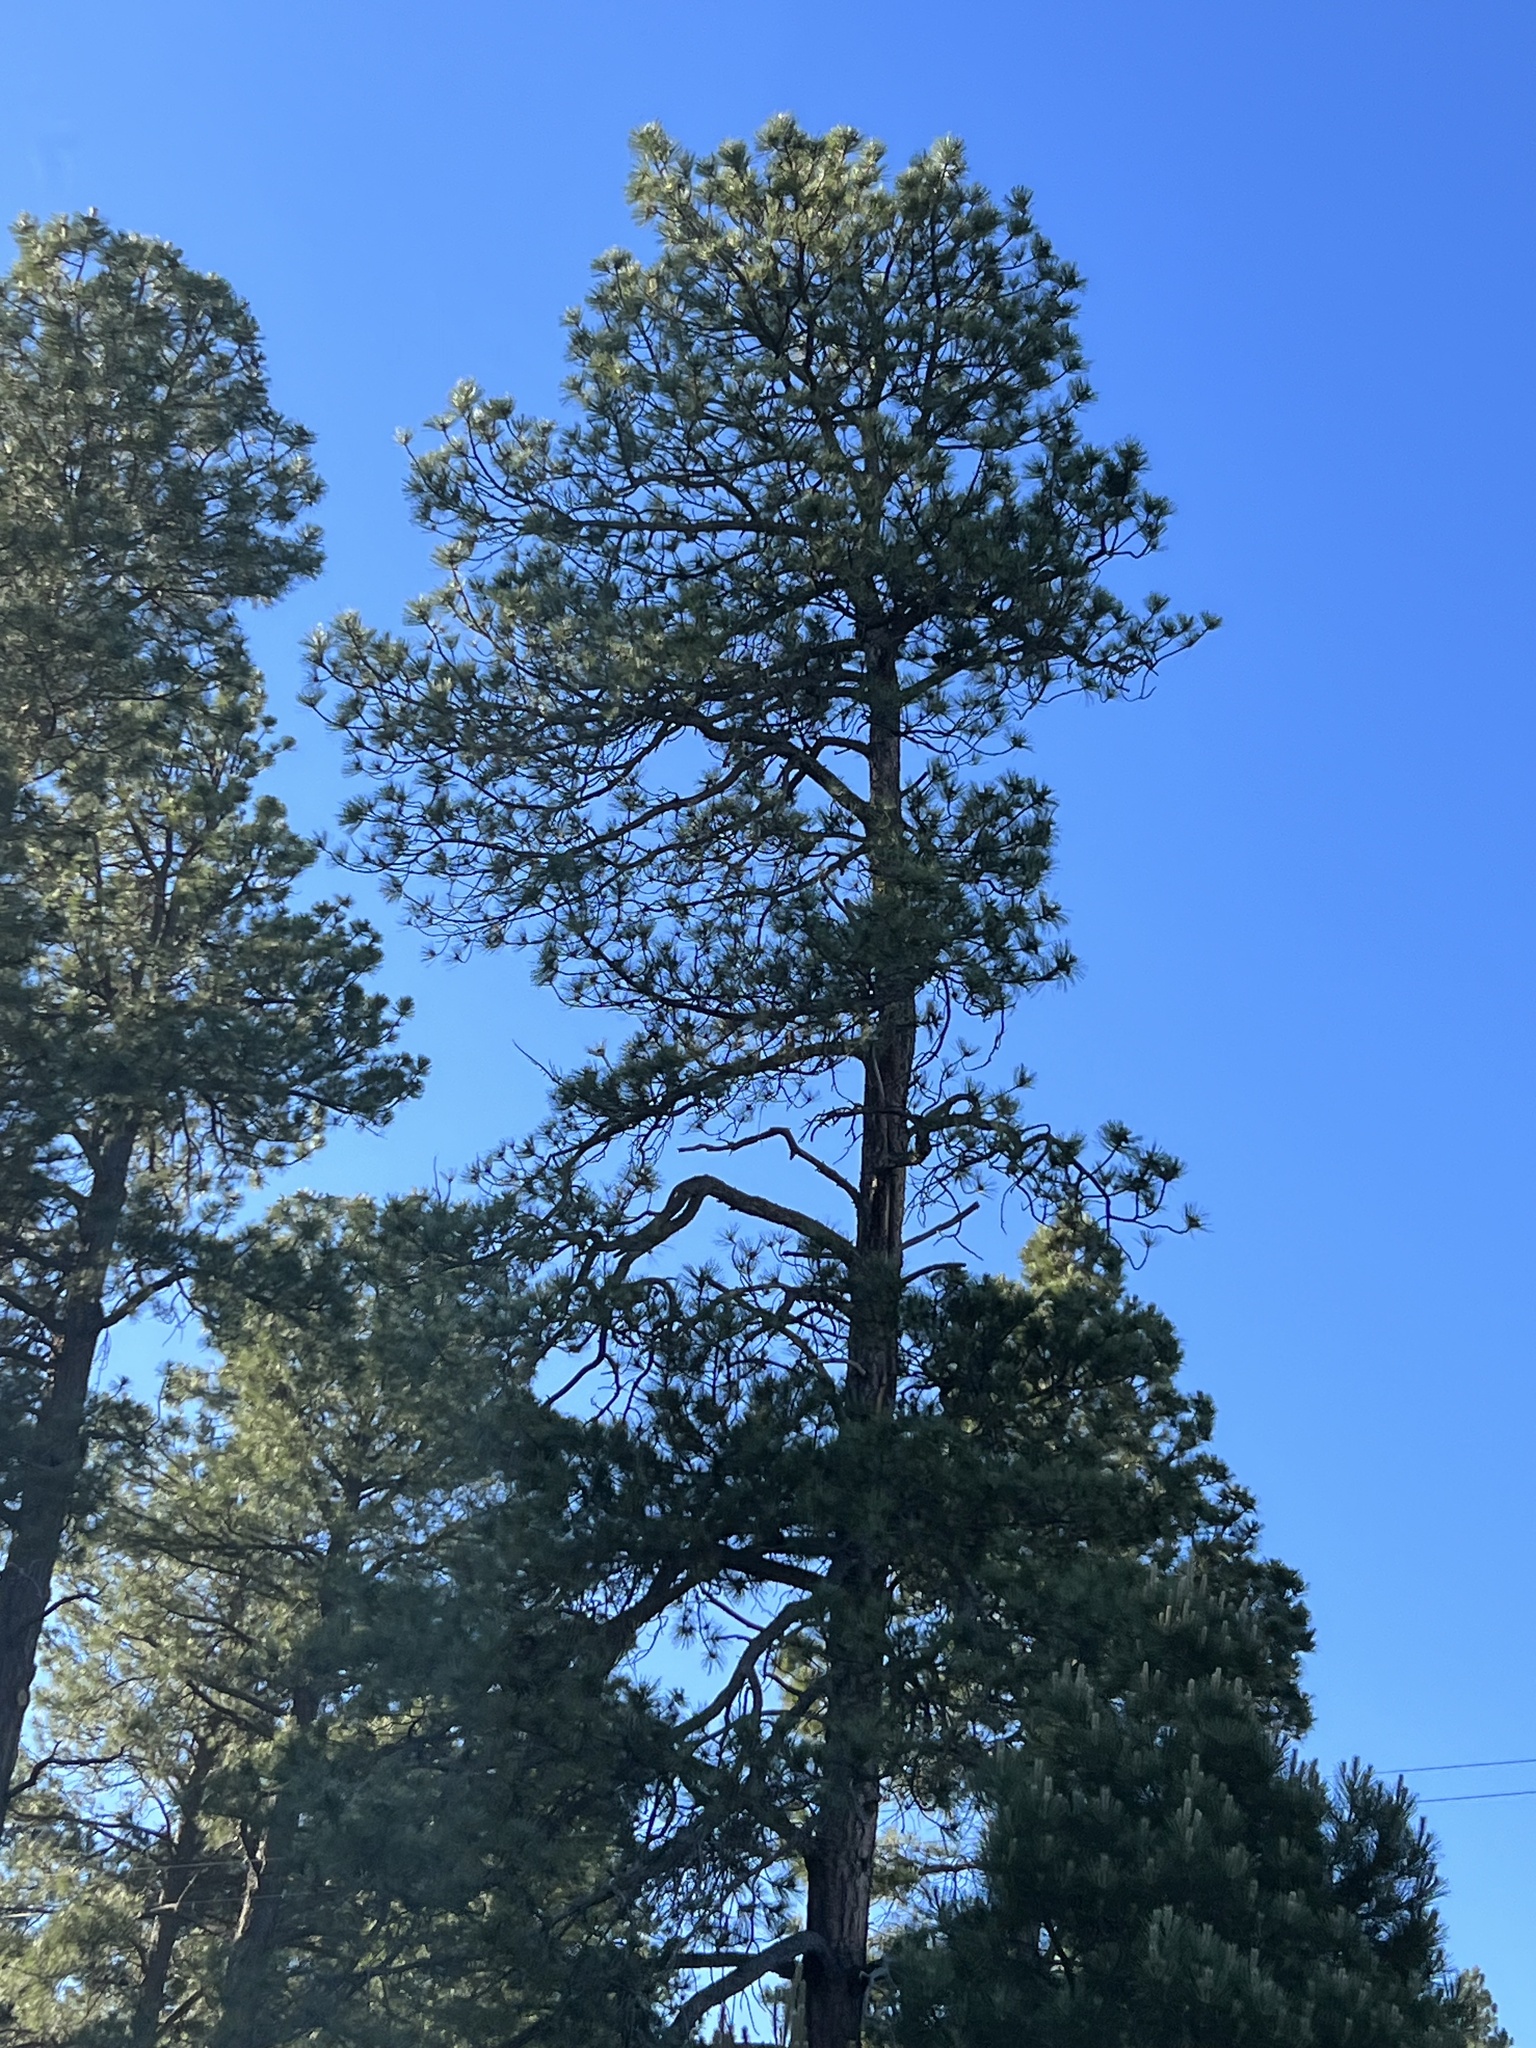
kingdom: Plantae
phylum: Tracheophyta
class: Pinopsida
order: Pinales
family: Pinaceae
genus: Pinus
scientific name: Pinus ponderosa
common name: Western yellow-pine
